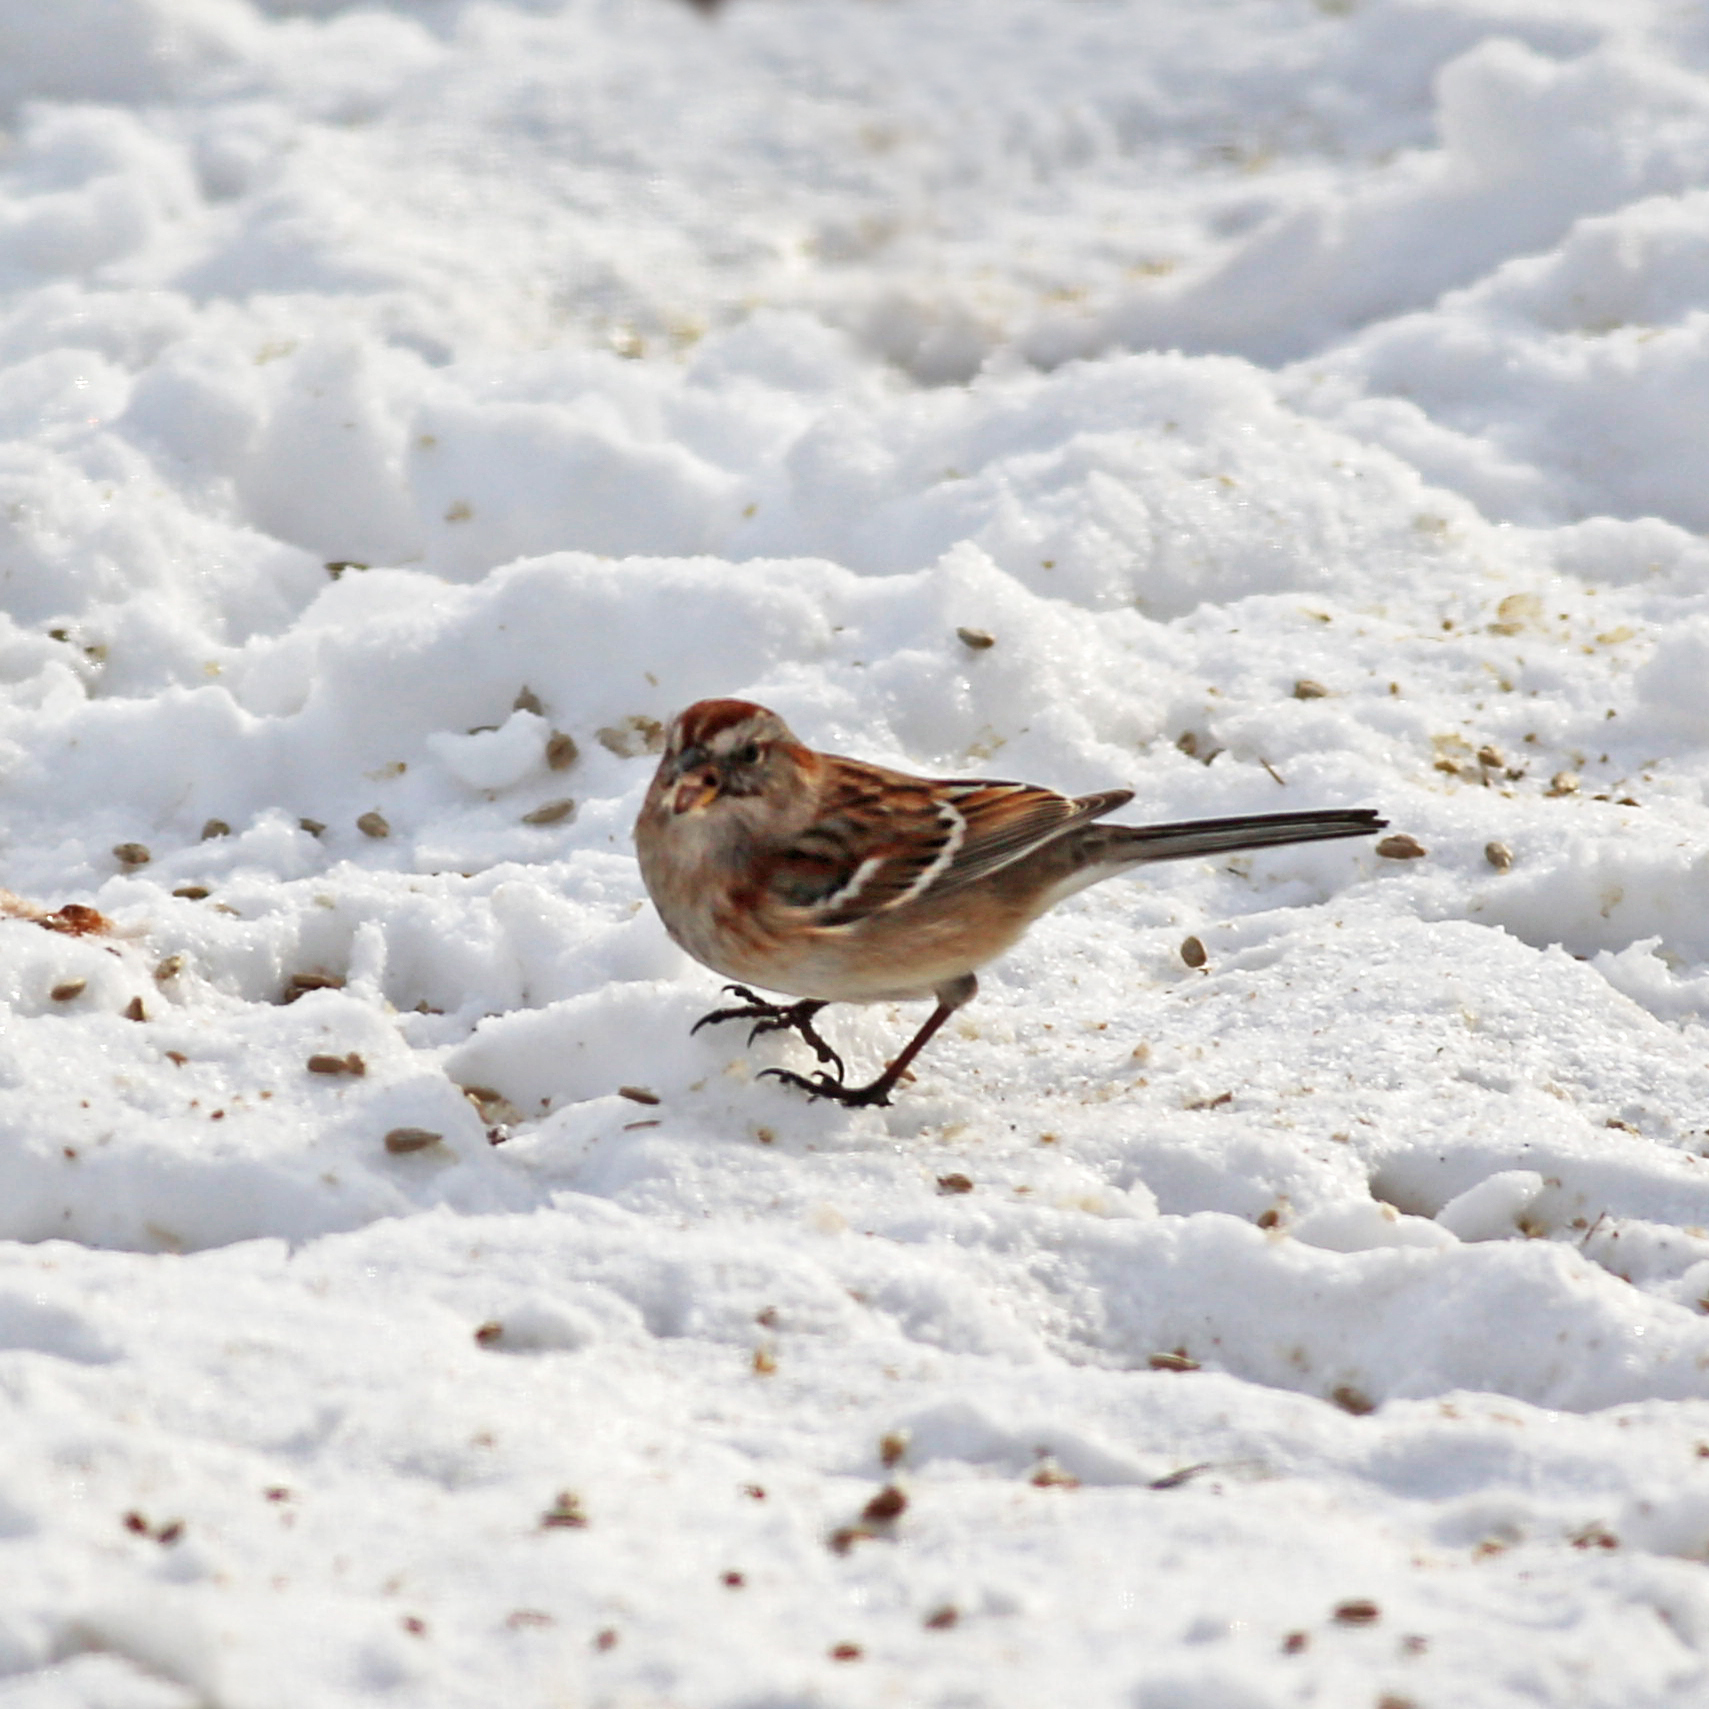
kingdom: Animalia
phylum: Chordata
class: Aves
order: Passeriformes
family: Passerellidae
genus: Spizelloides
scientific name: Spizelloides arborea
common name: American tree sparrow
